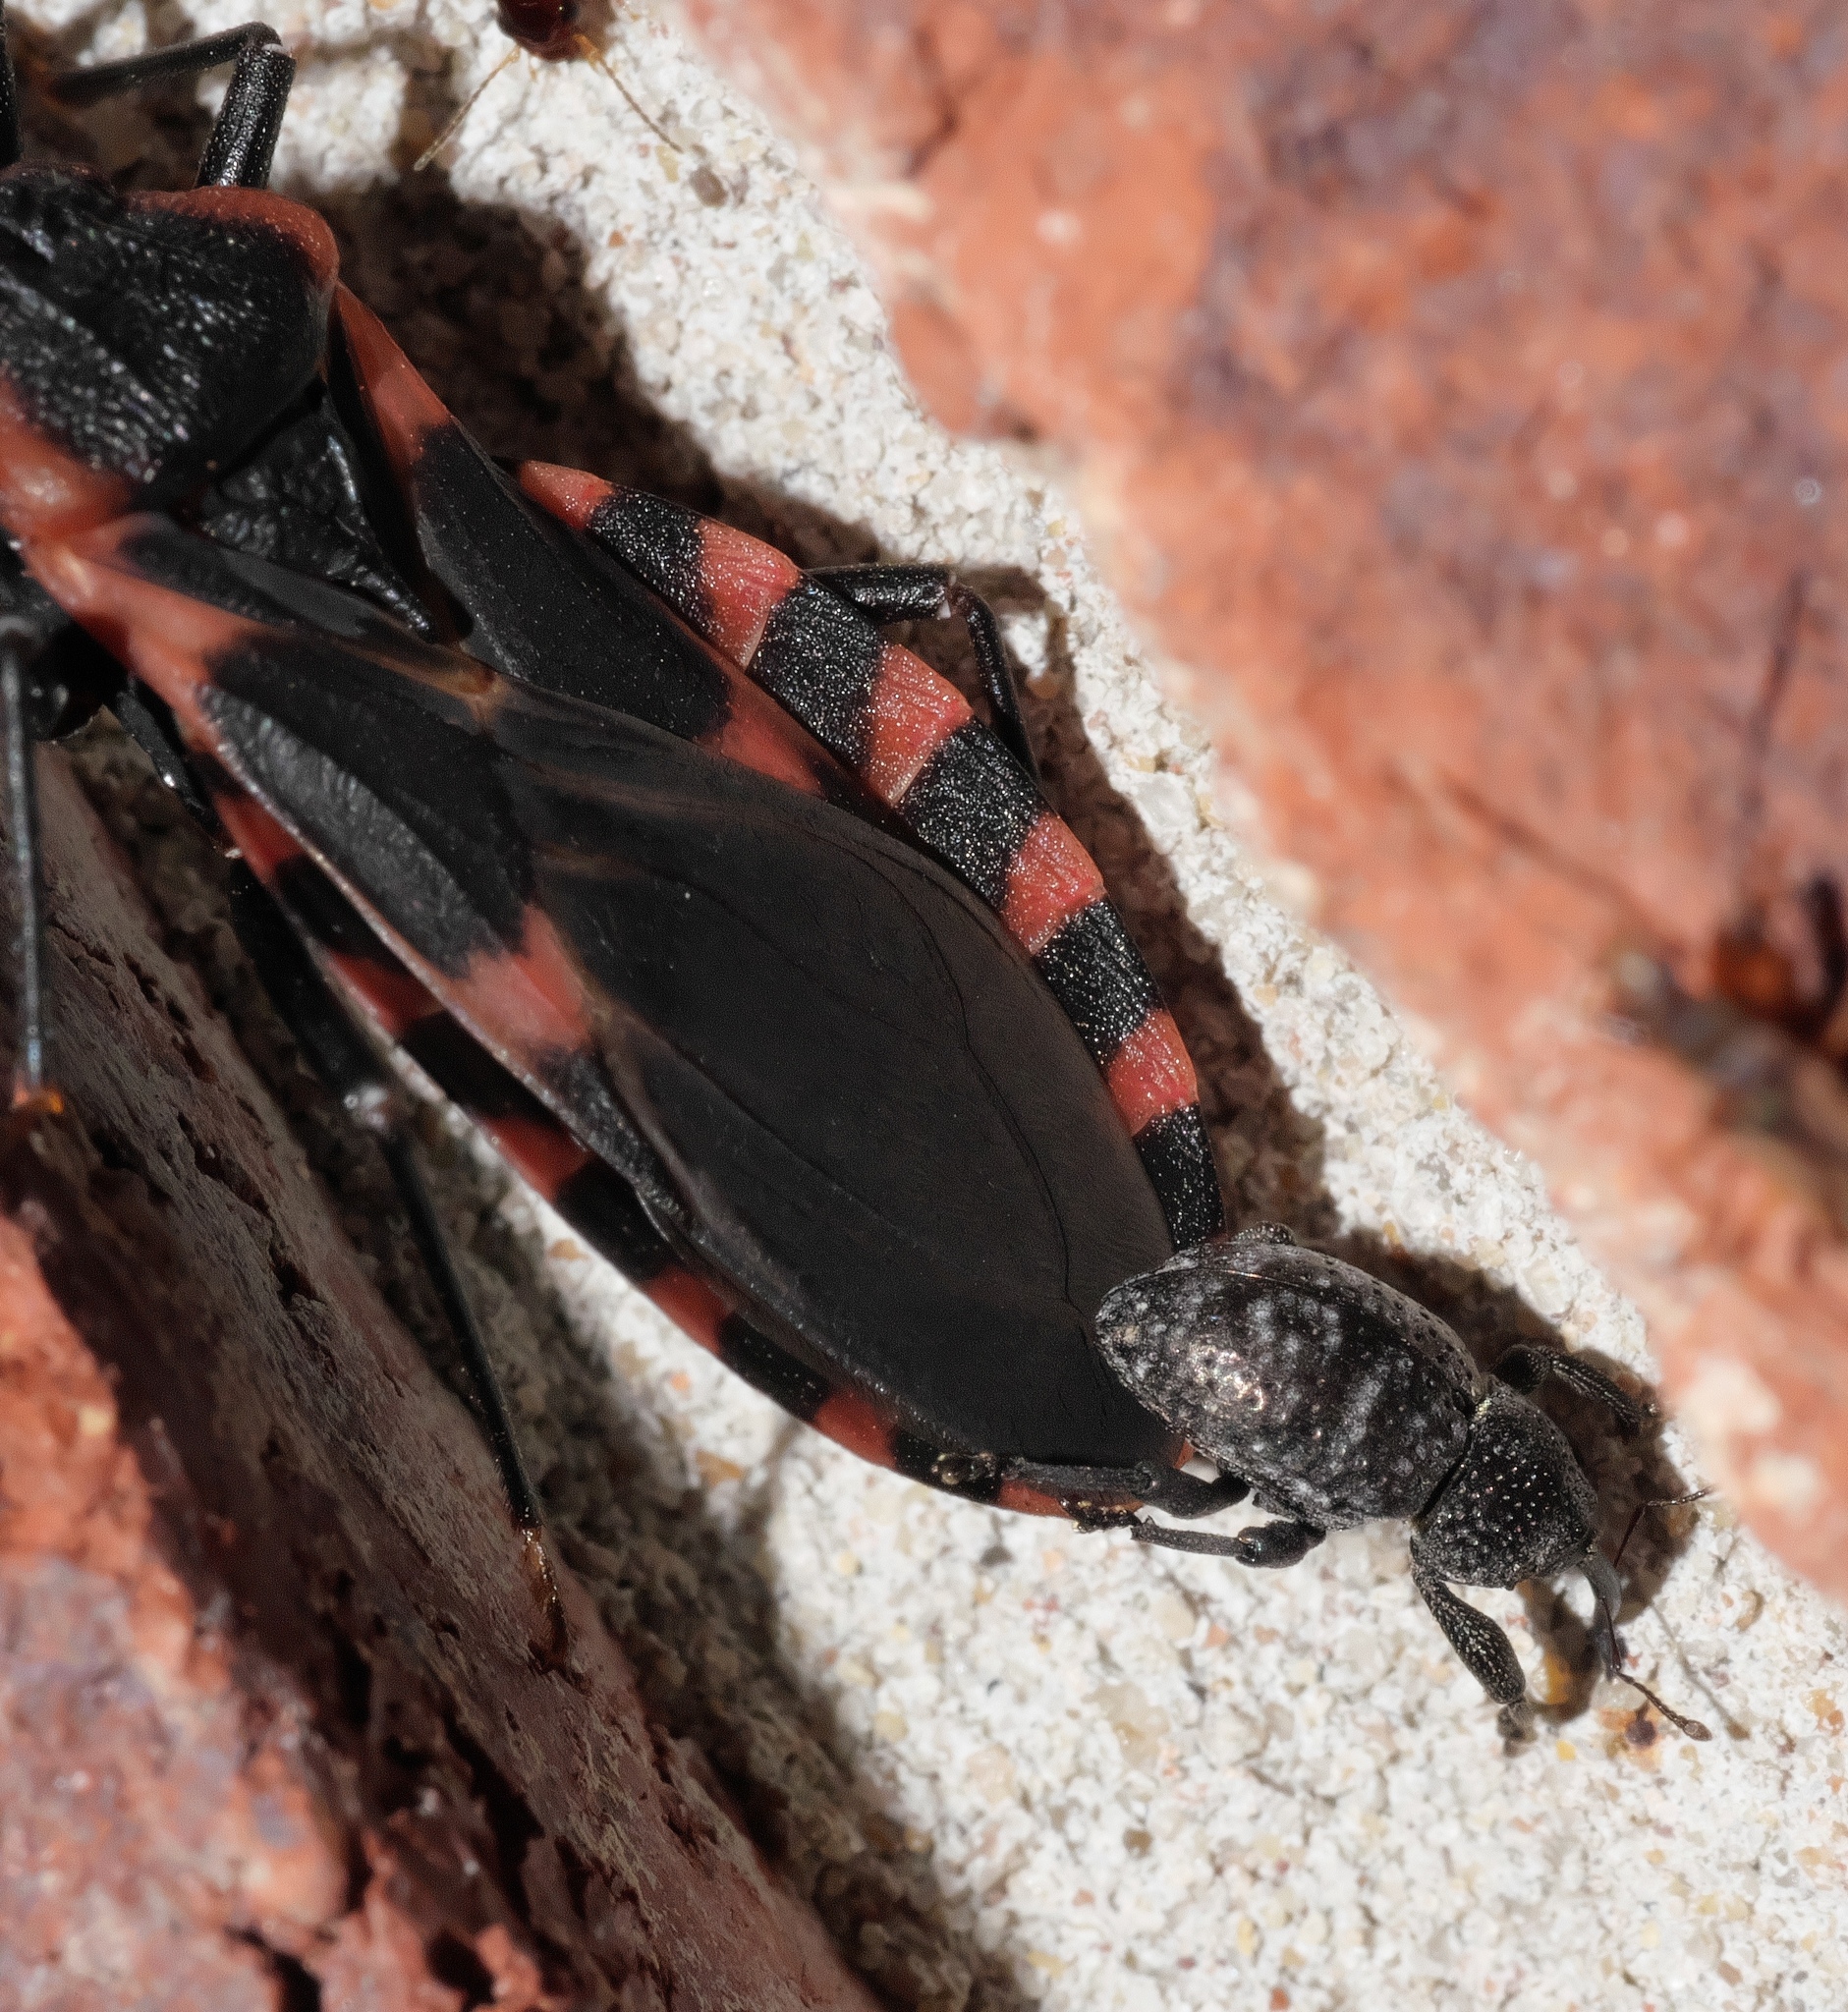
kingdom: Animalia
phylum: Arthropoda
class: Insecta
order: Coleoptera
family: Curculionidae
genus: Chalcodermus
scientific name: Chalcodermus aeneus
